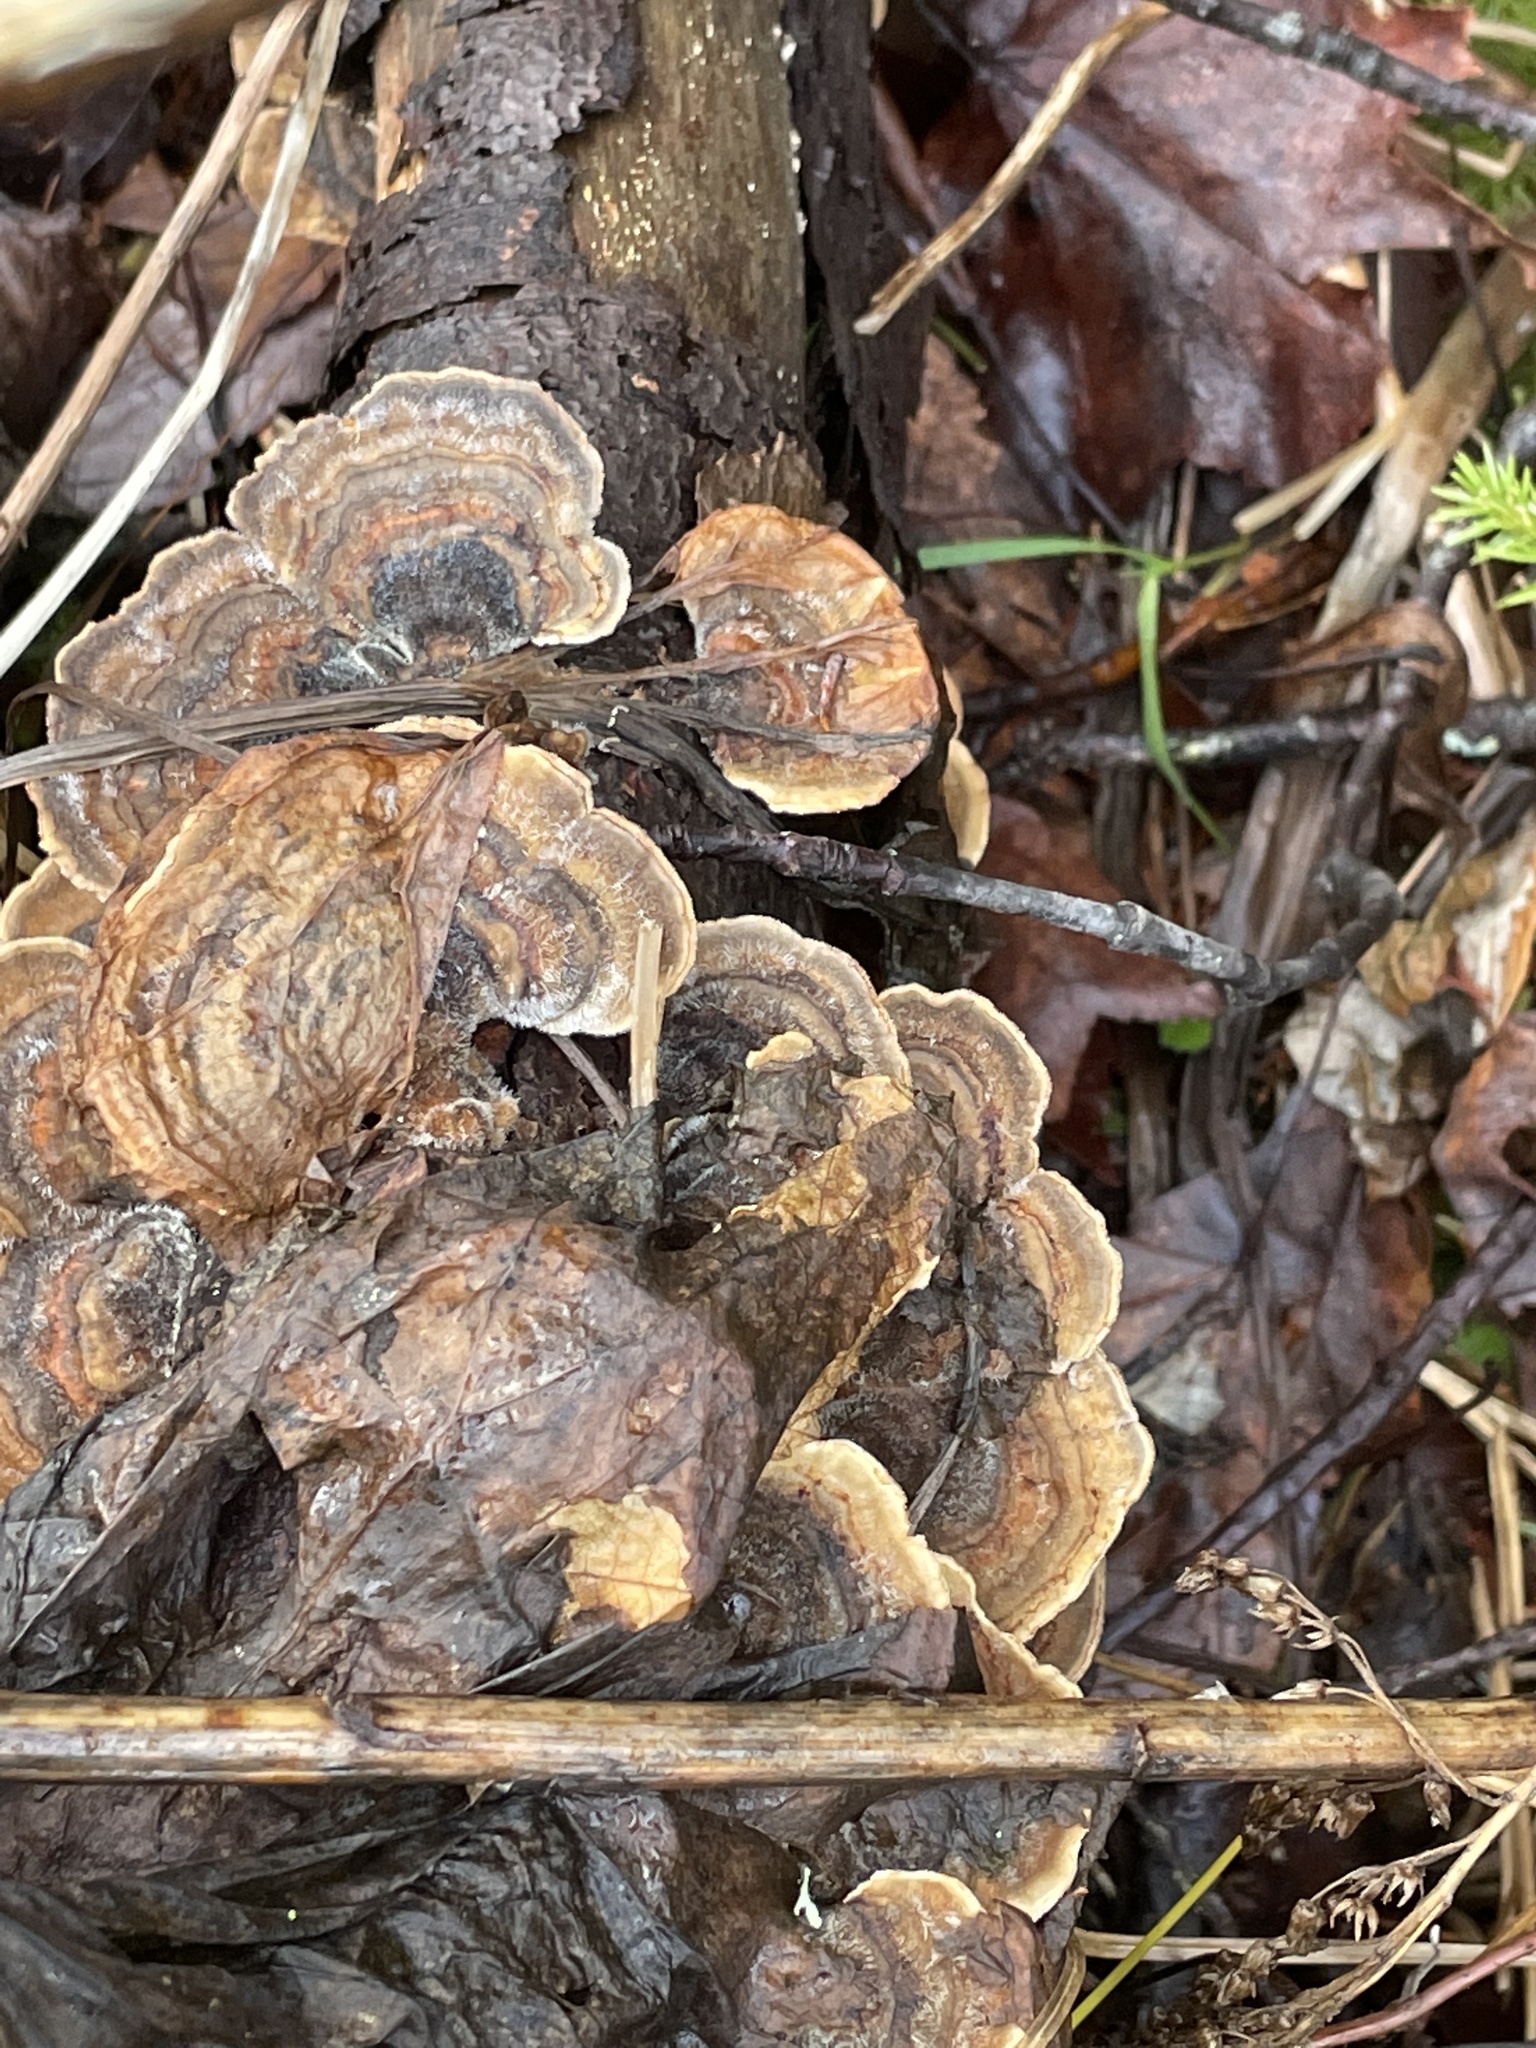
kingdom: Fungi
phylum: Basidiomycota
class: Agaricomycetes
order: Polyporales
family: Polyporaceae
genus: Trametes
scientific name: Trametes versicolor
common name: Turkeytail
